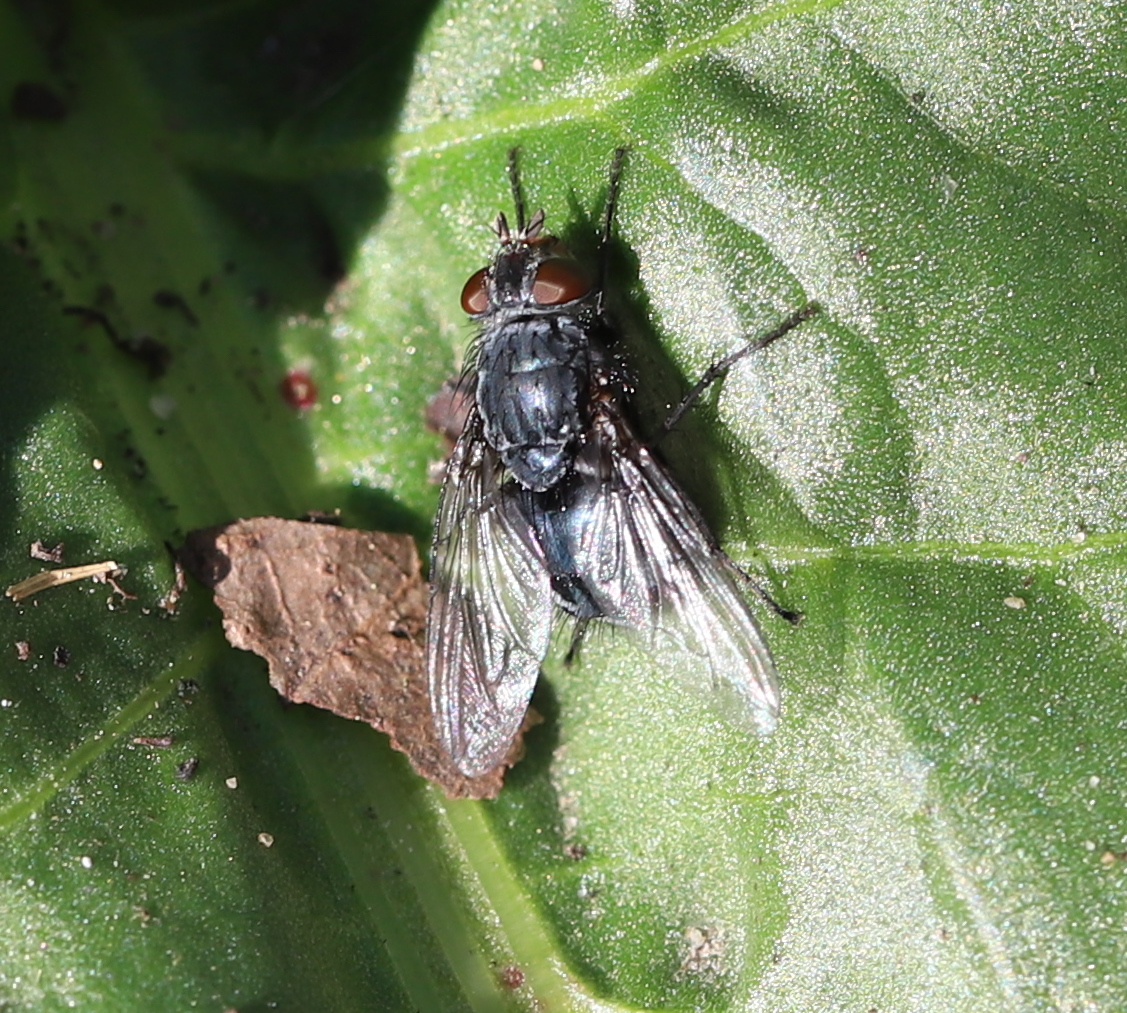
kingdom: Animalia
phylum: Arthropoda
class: Insecta
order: Diptera
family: Calliphoridae
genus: Calliphora
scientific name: Calliphora vicina
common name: Common blow flie
